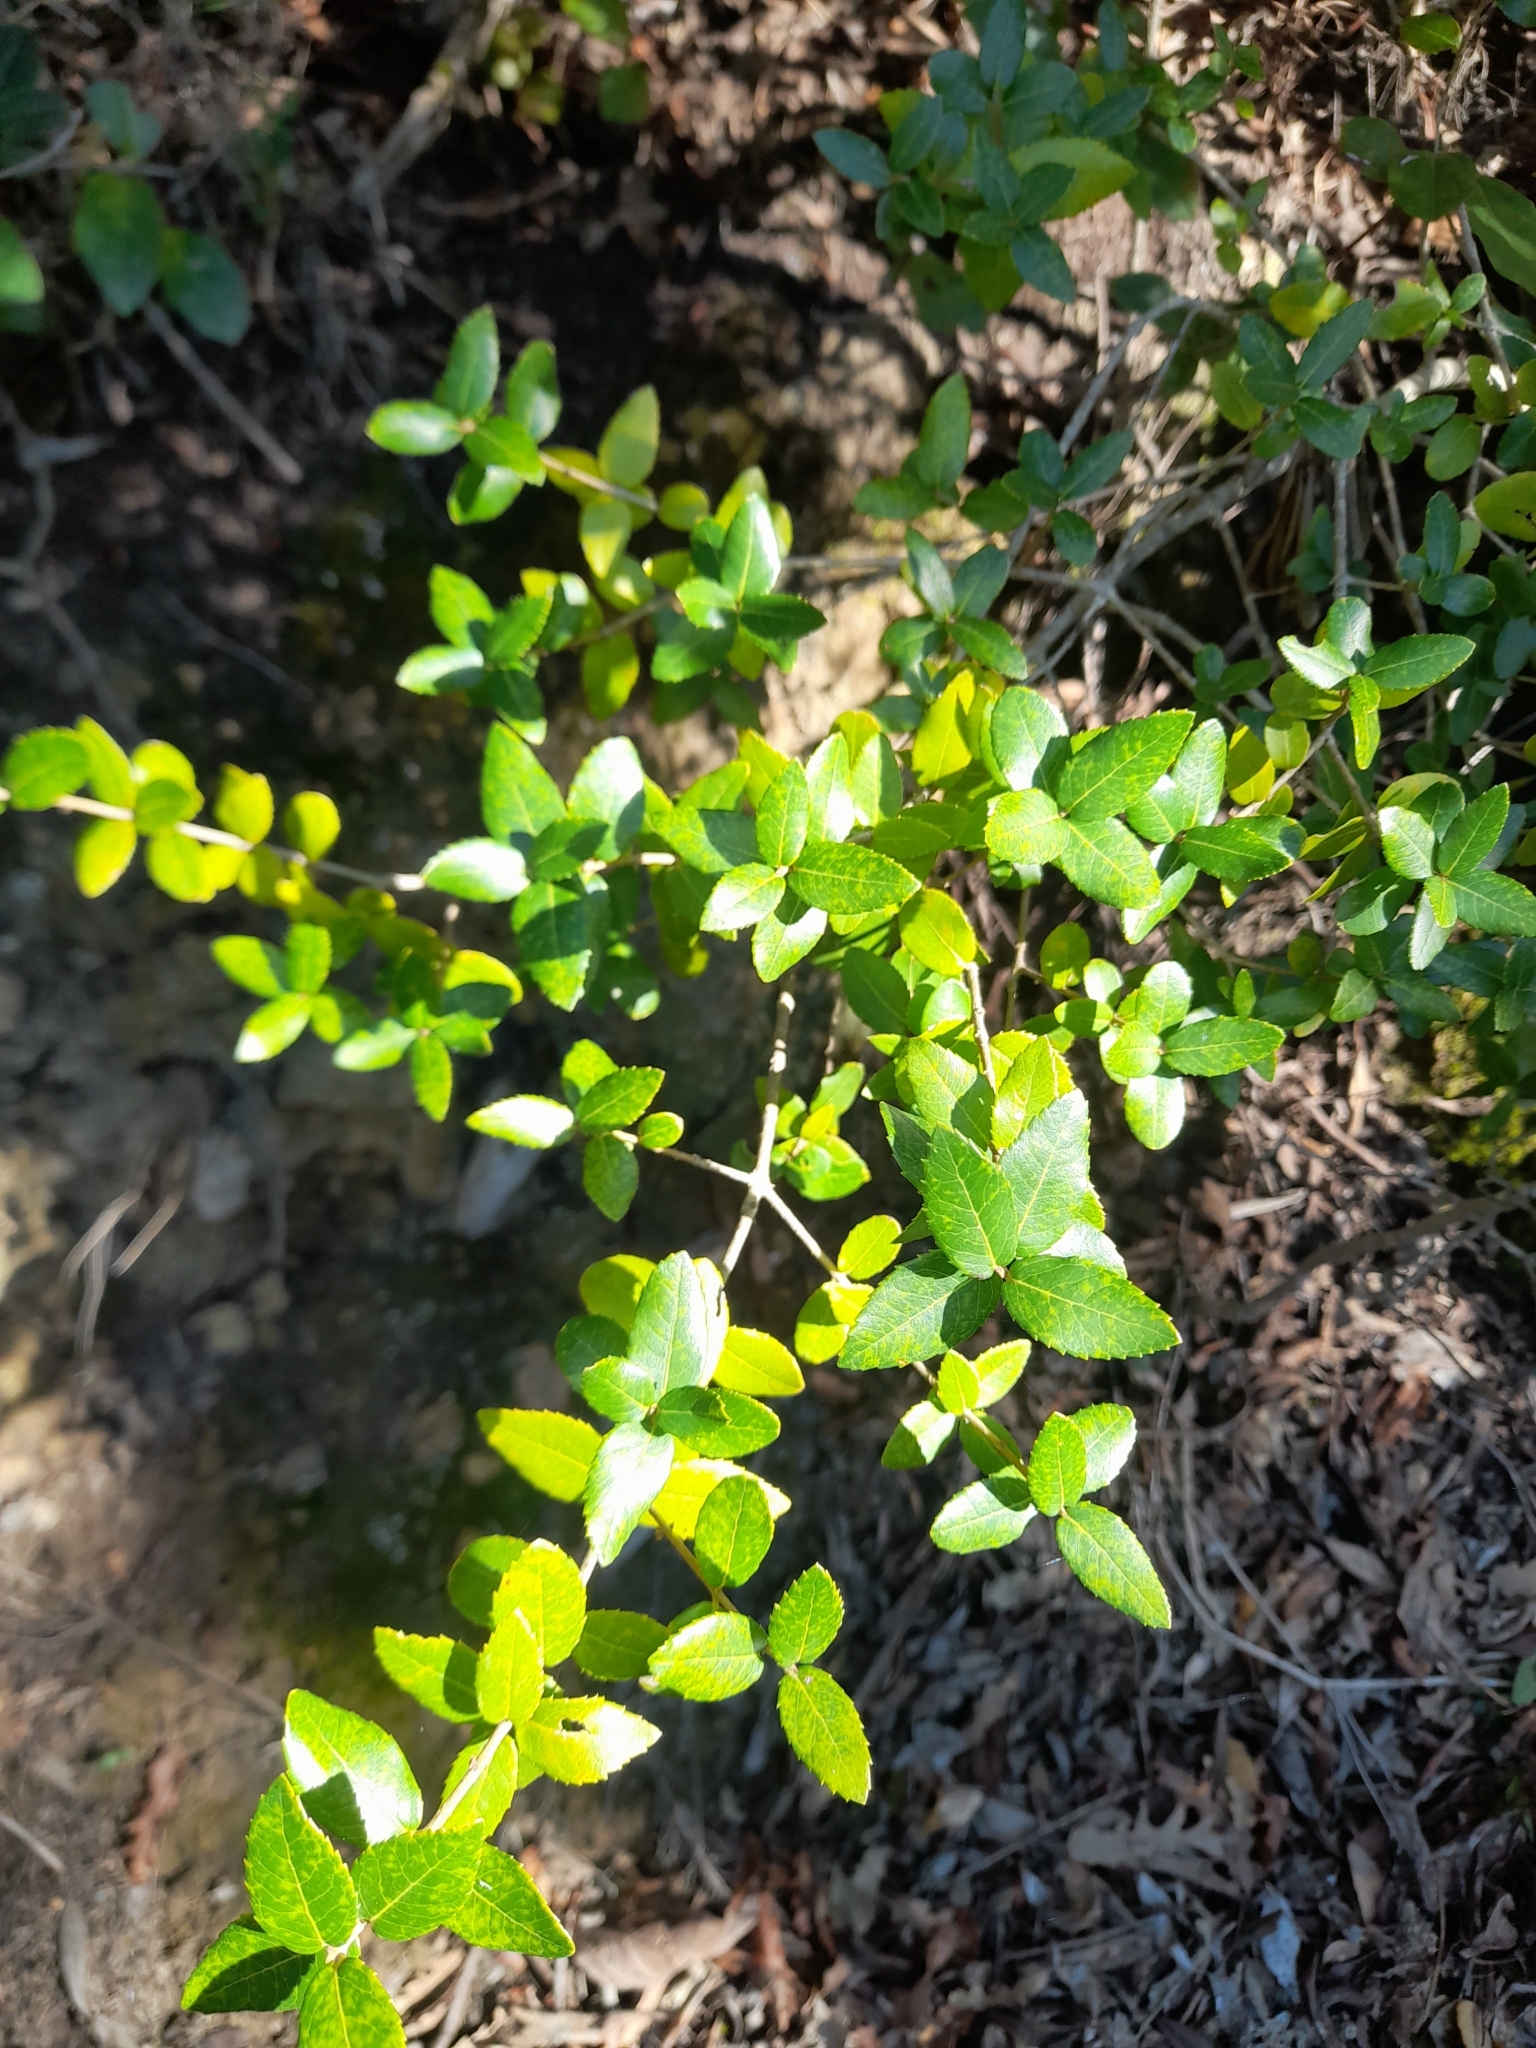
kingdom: Plantae
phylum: Tracheophyta
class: Magnoliopsida
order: Lamiales
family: Oleaceae
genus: Phillyrea
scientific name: Phillyrea latifolia
